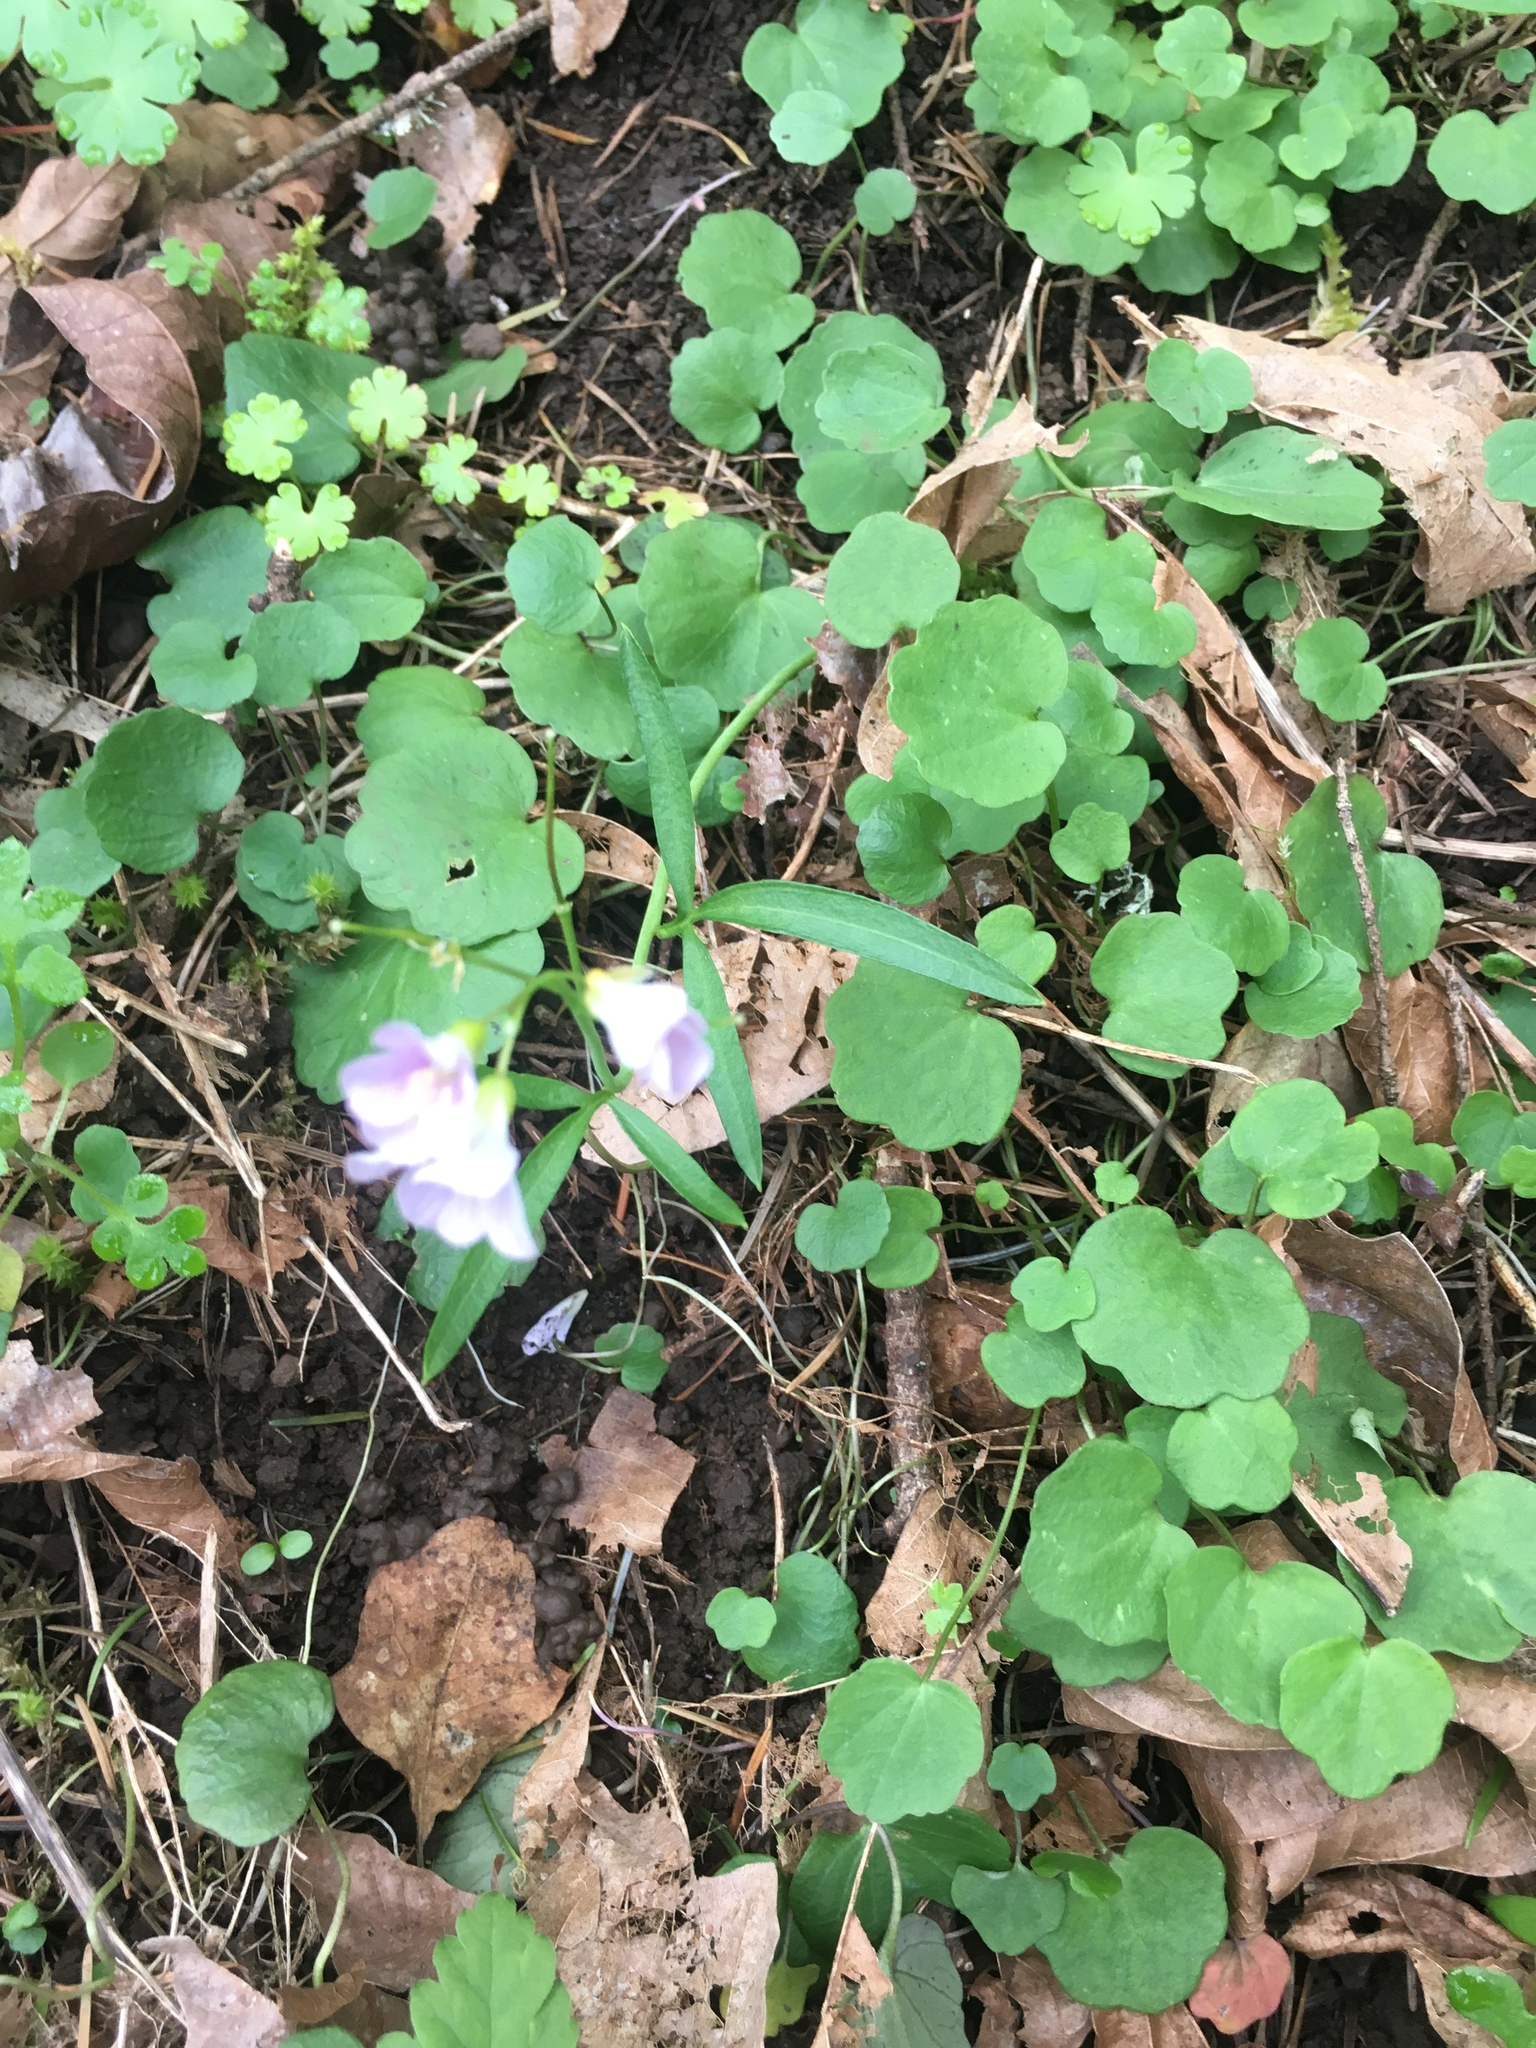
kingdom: Plantae
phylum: Tracheophyta
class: Magnoliopsida
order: Brassicales
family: Brassicaceae
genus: Cardamine
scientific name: Cardamine nuttallii
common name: Nuttall's toothwort
